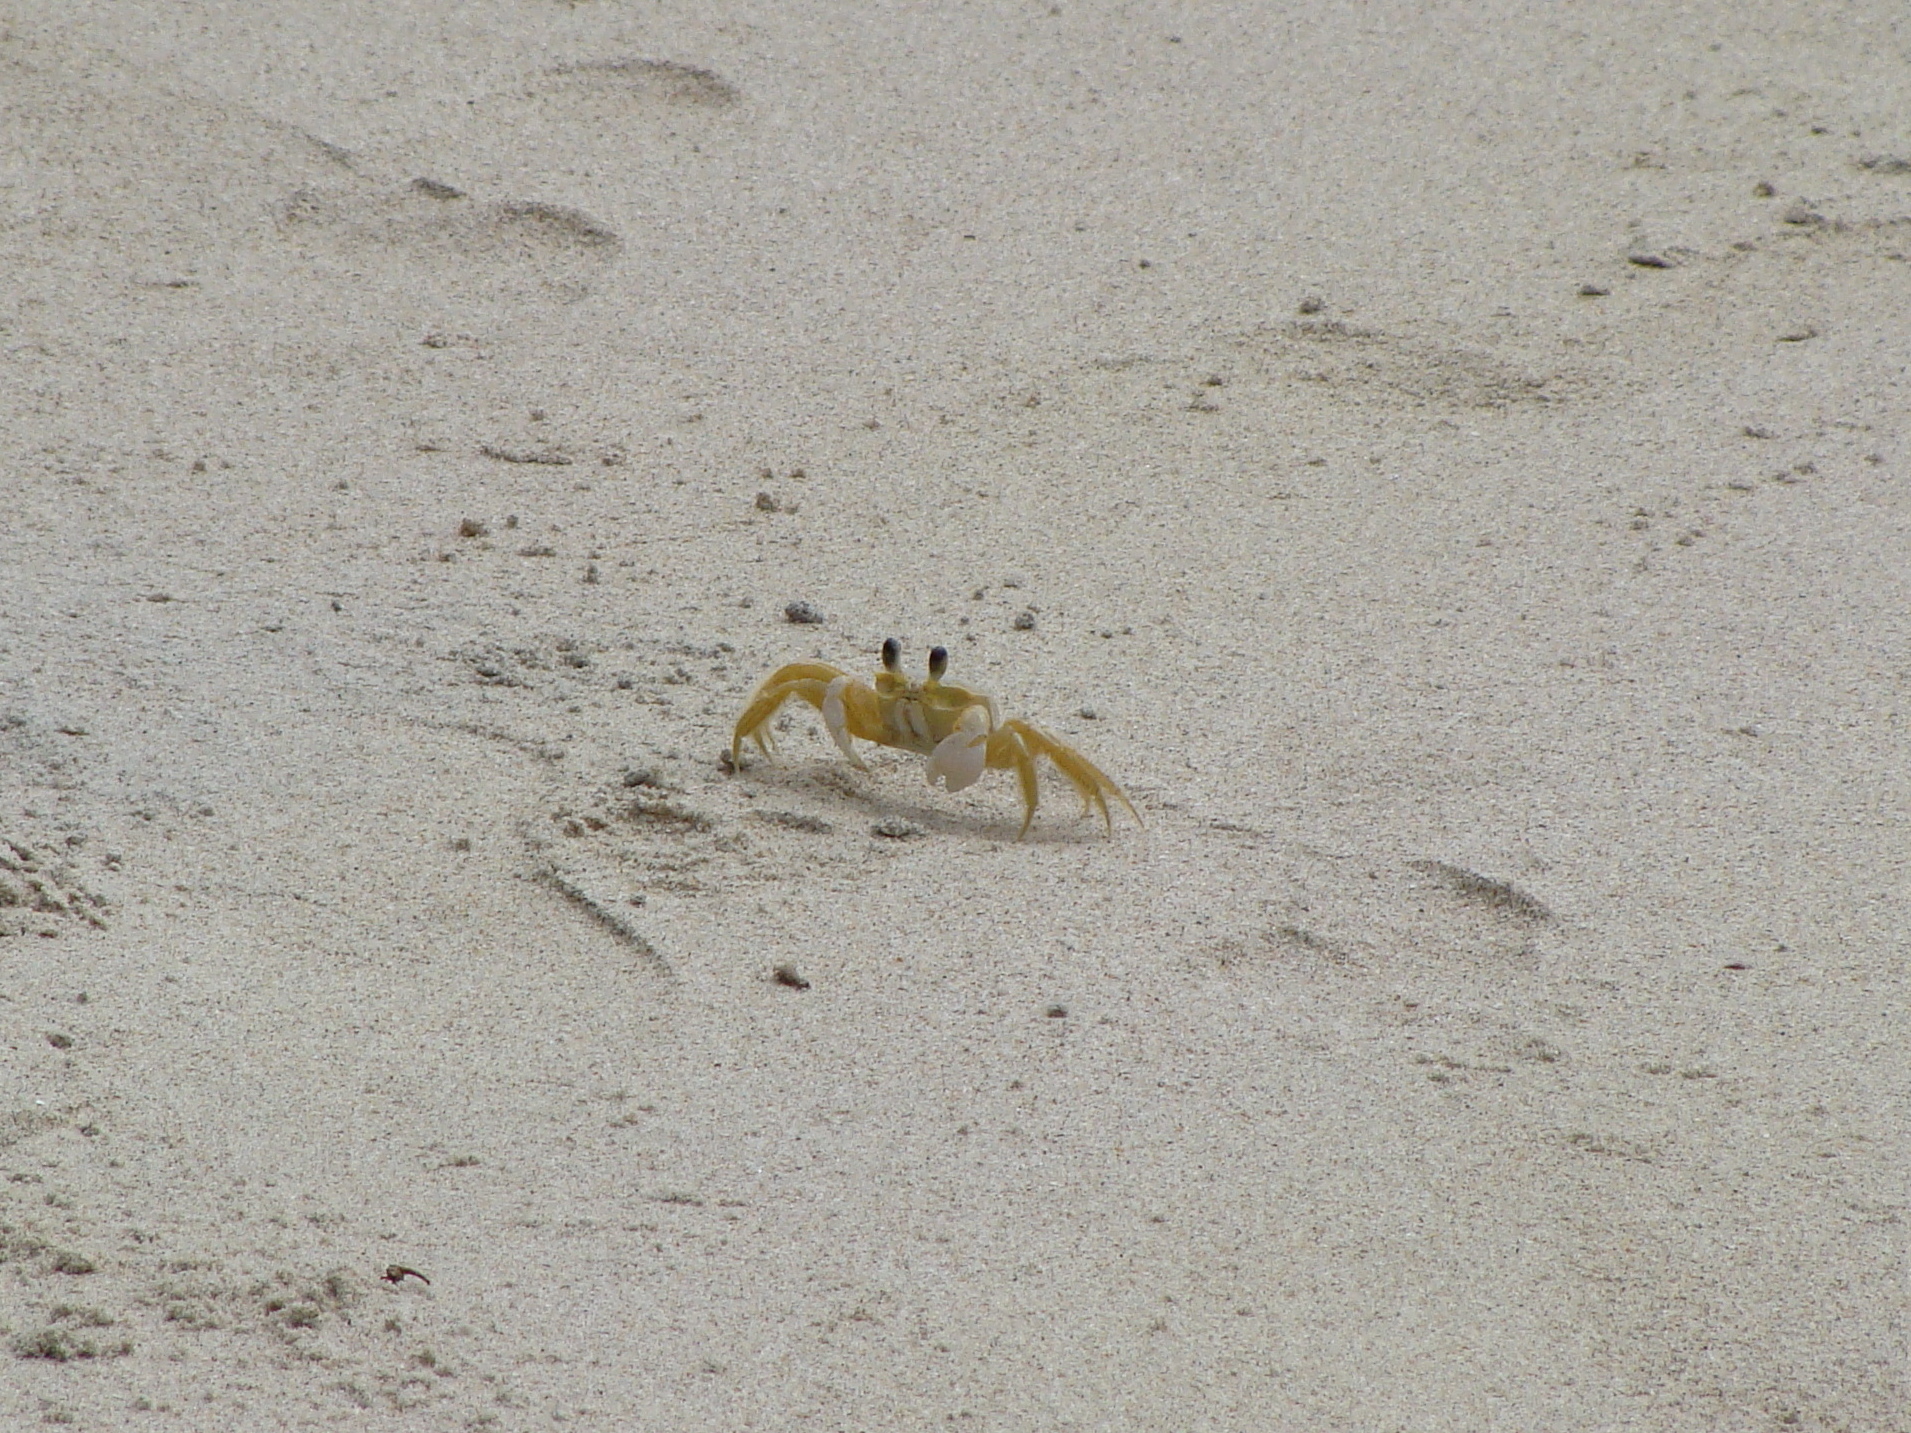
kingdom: Animalia
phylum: Arthropoda
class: Malacostraca
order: Decapoda
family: Ocypodidae
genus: Ocypode
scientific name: Ocypode quadrata
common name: Ghost crab
